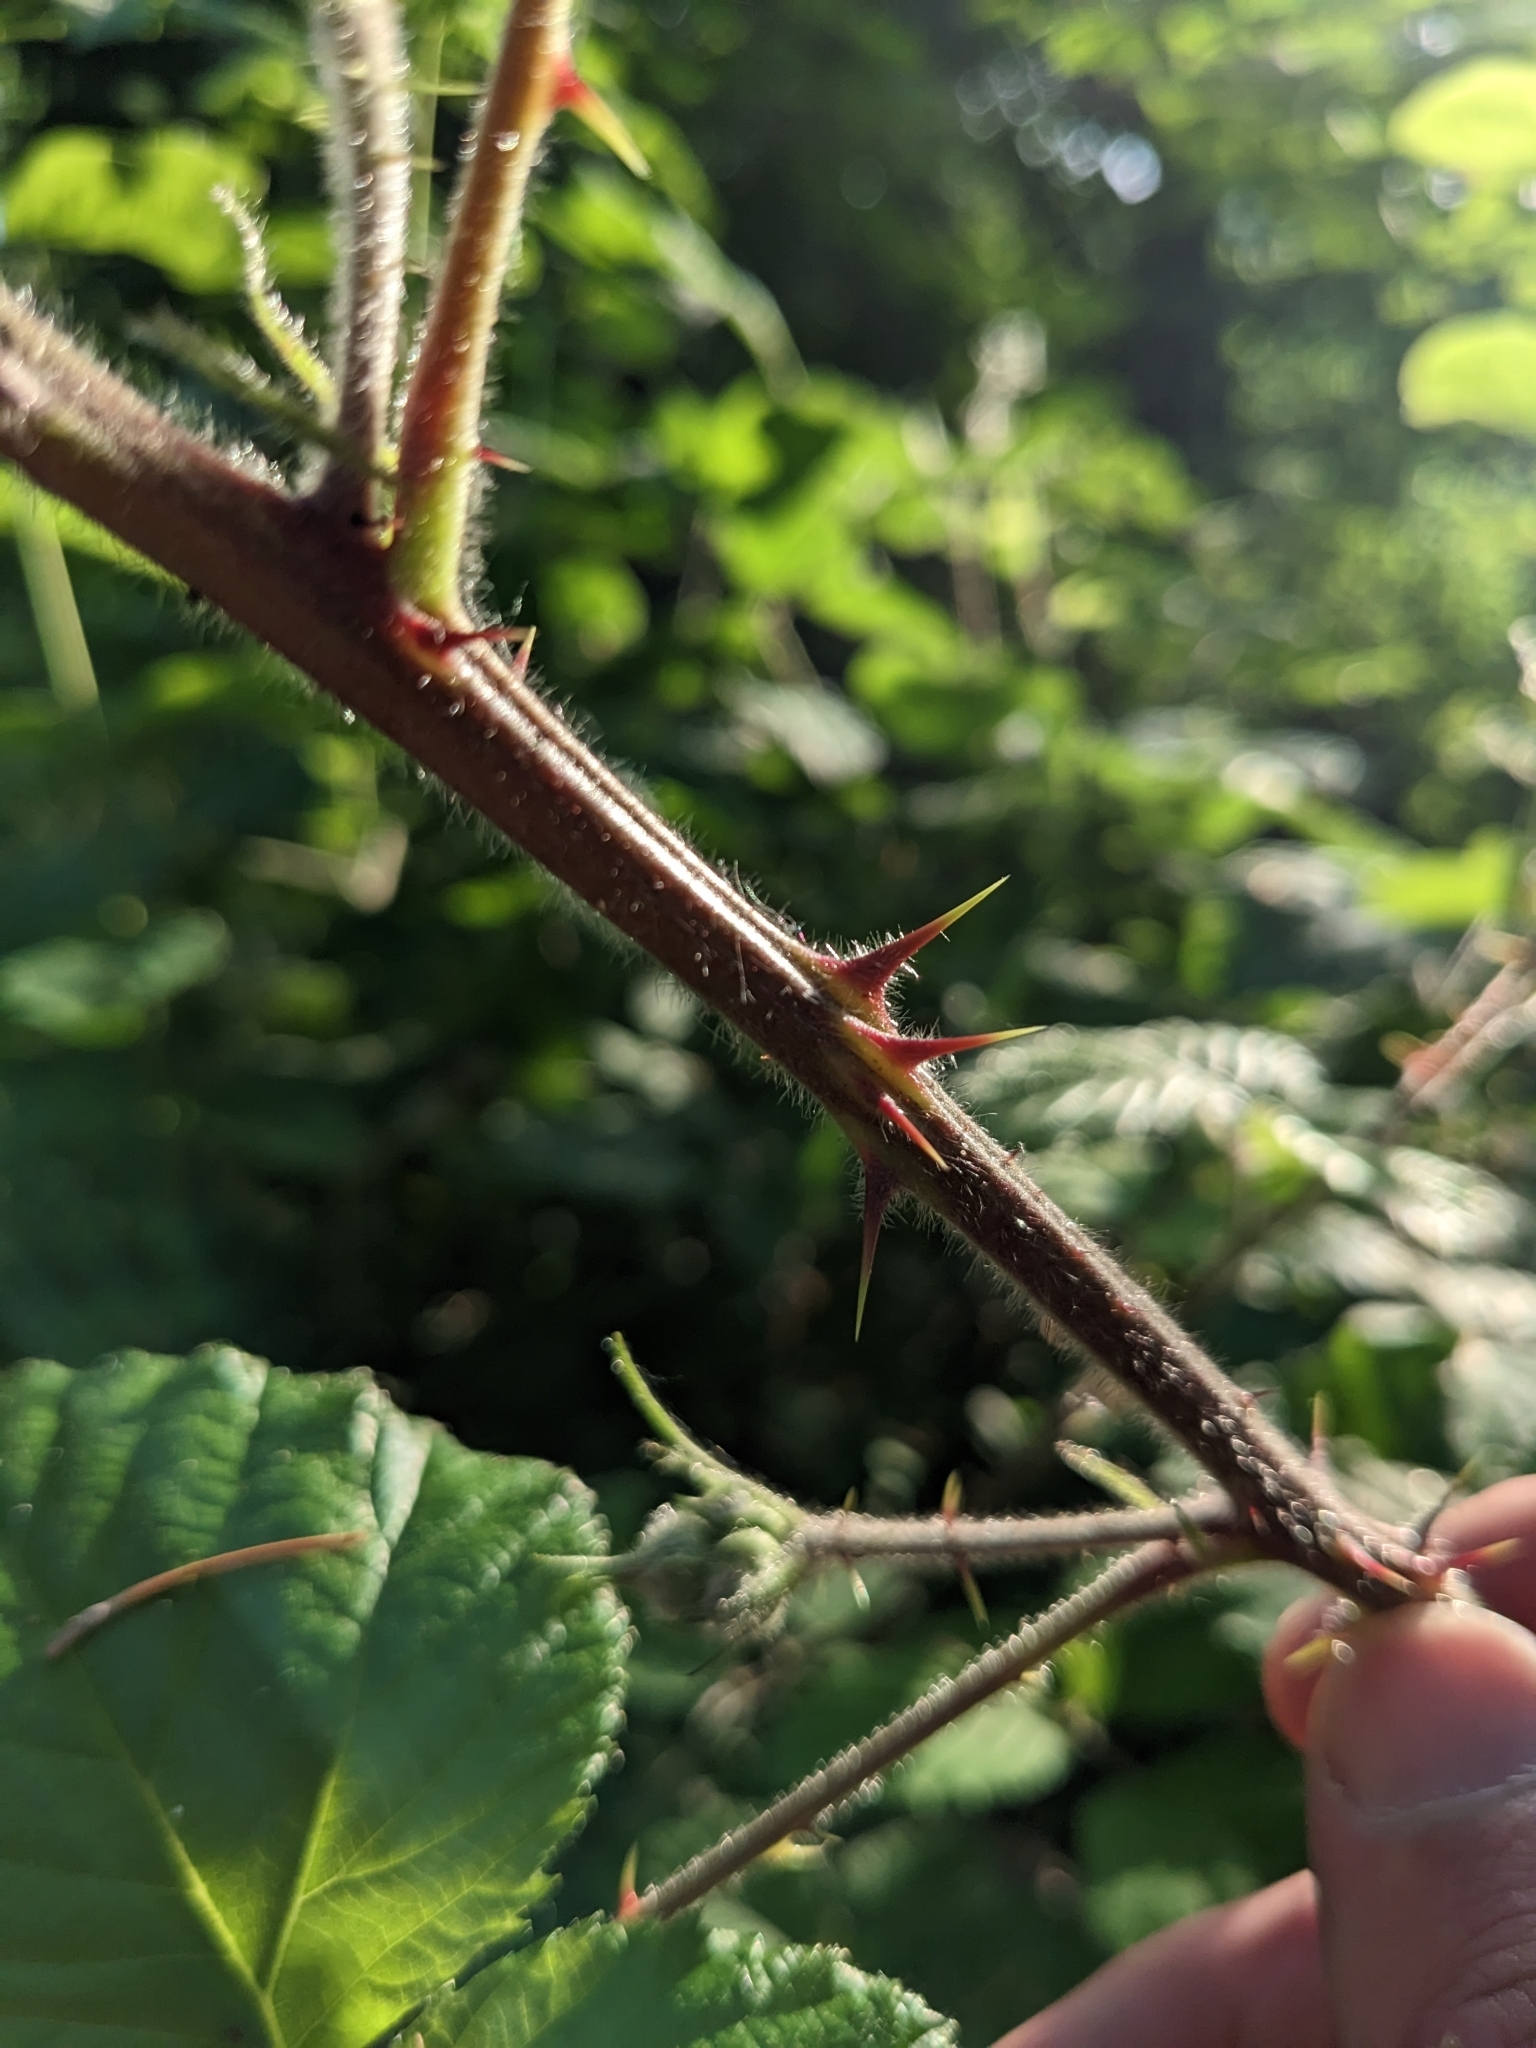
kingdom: Plantae
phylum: Tracheophyta
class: Magnoliopsida
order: Rosales
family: Rosaceae
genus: Rubus
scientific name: Rubus vestitus
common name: European blackberry
